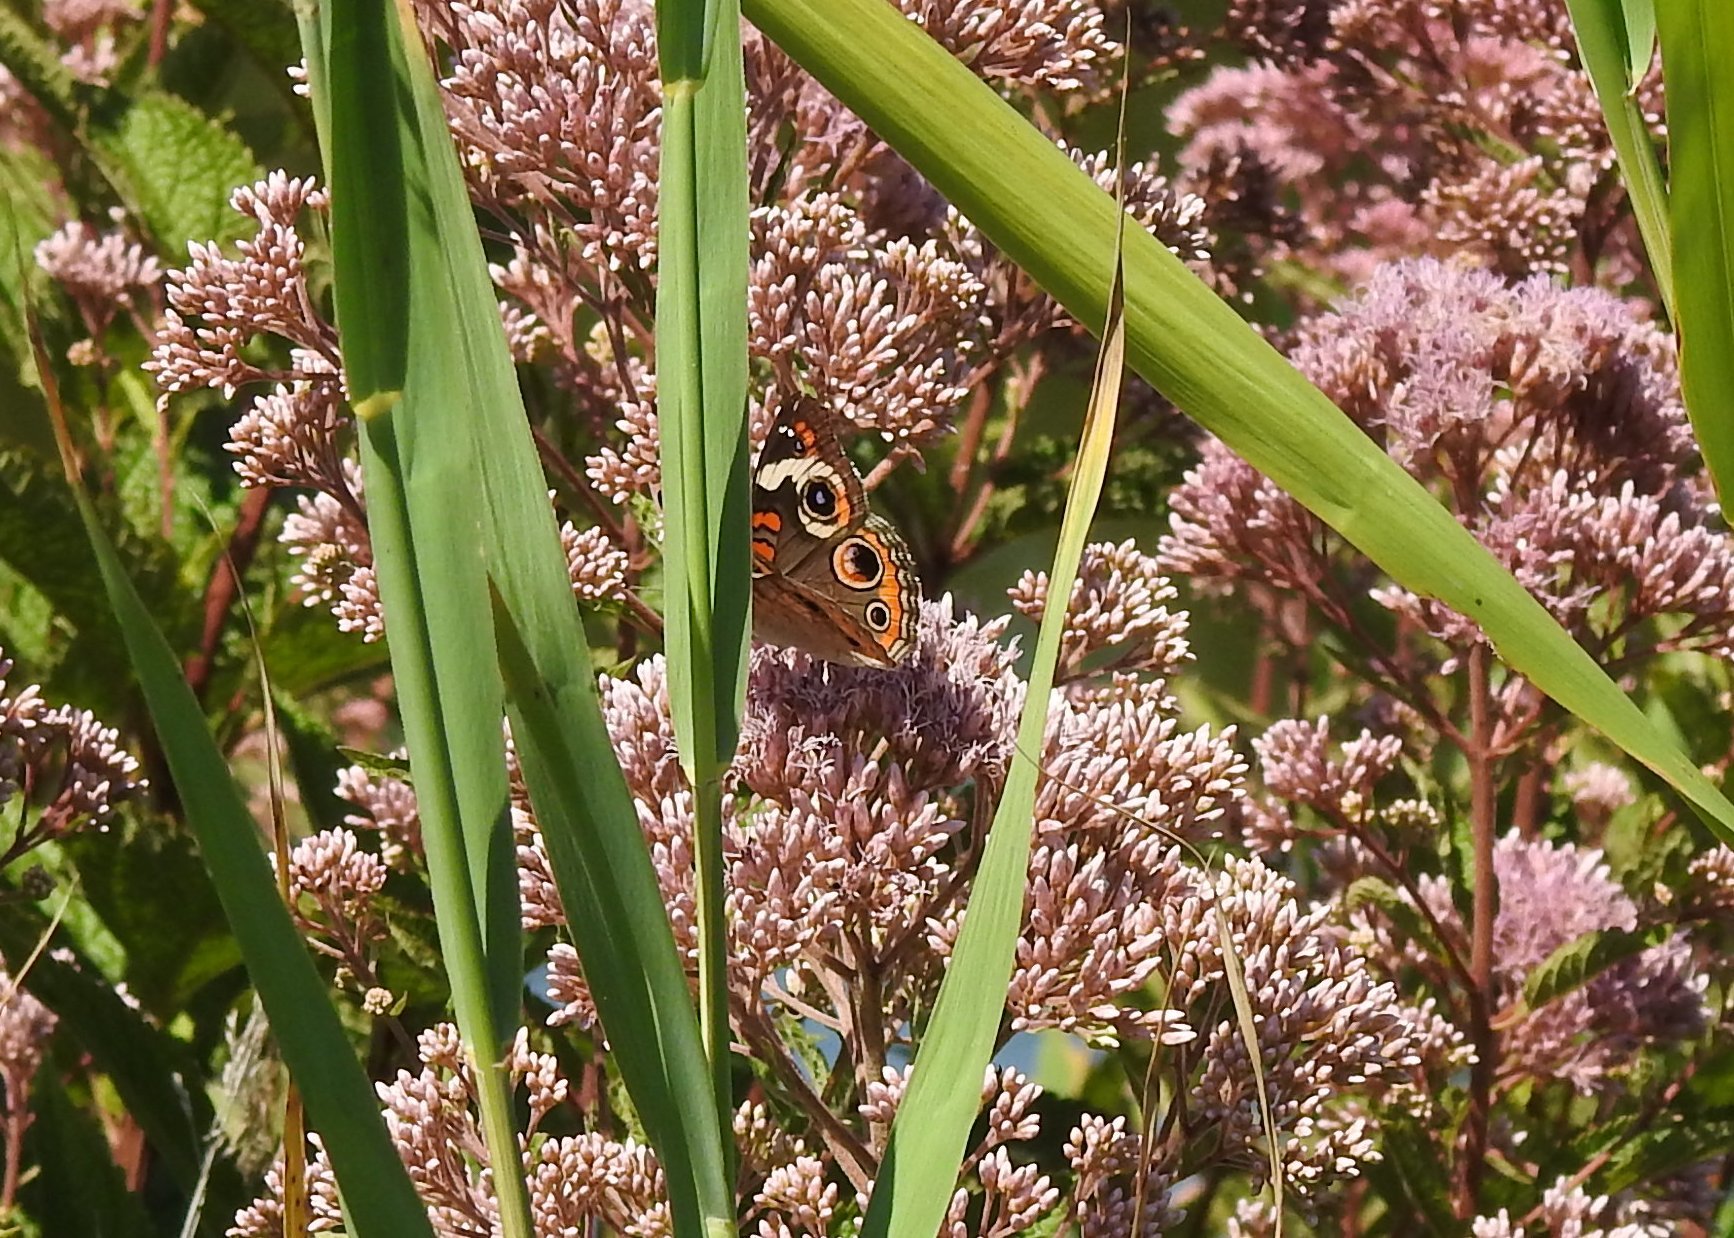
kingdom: Animalia
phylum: Arthropoda
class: Insecta
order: Lepidoptera
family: Nymphalidae
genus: Junonia
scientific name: Junonia coenia
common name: Common buckeye
